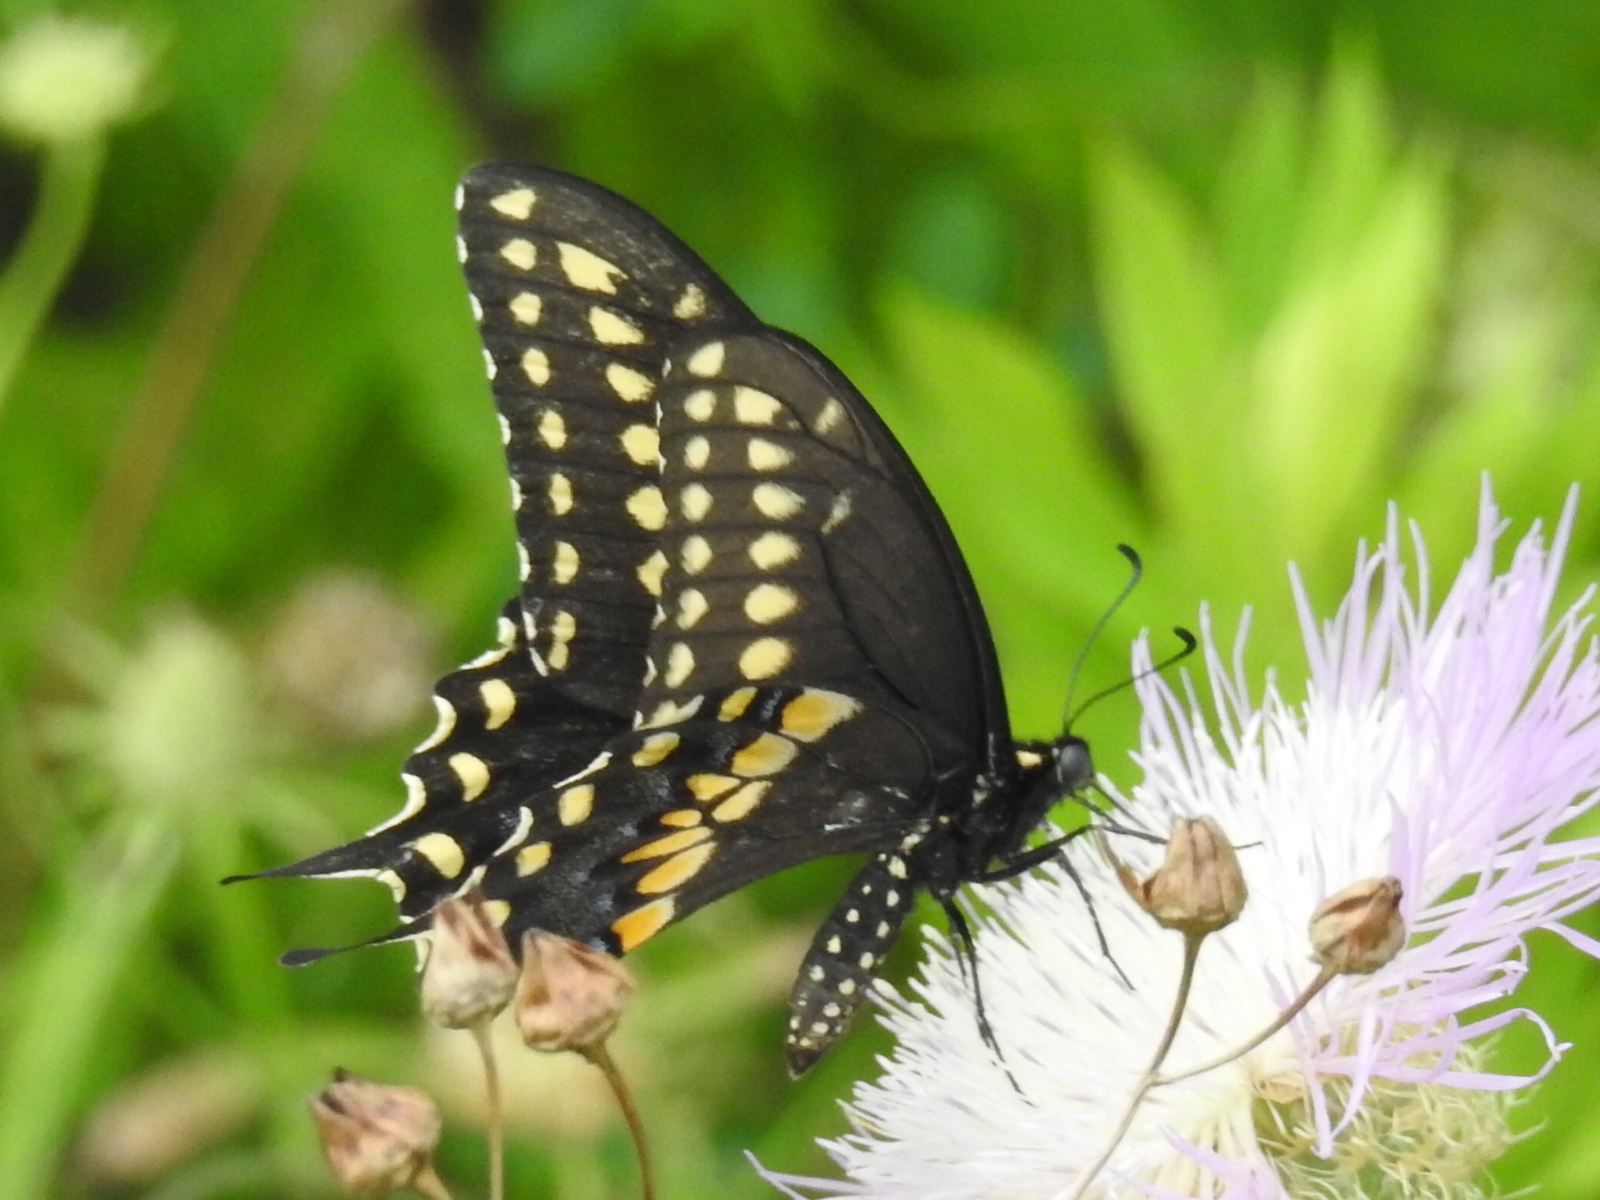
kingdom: Animalia
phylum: Arthropoda
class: Insecta
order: Lepidoptera
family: Papilionidae
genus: Papilio
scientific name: Papilio polyxenes
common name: Black swallowtail
